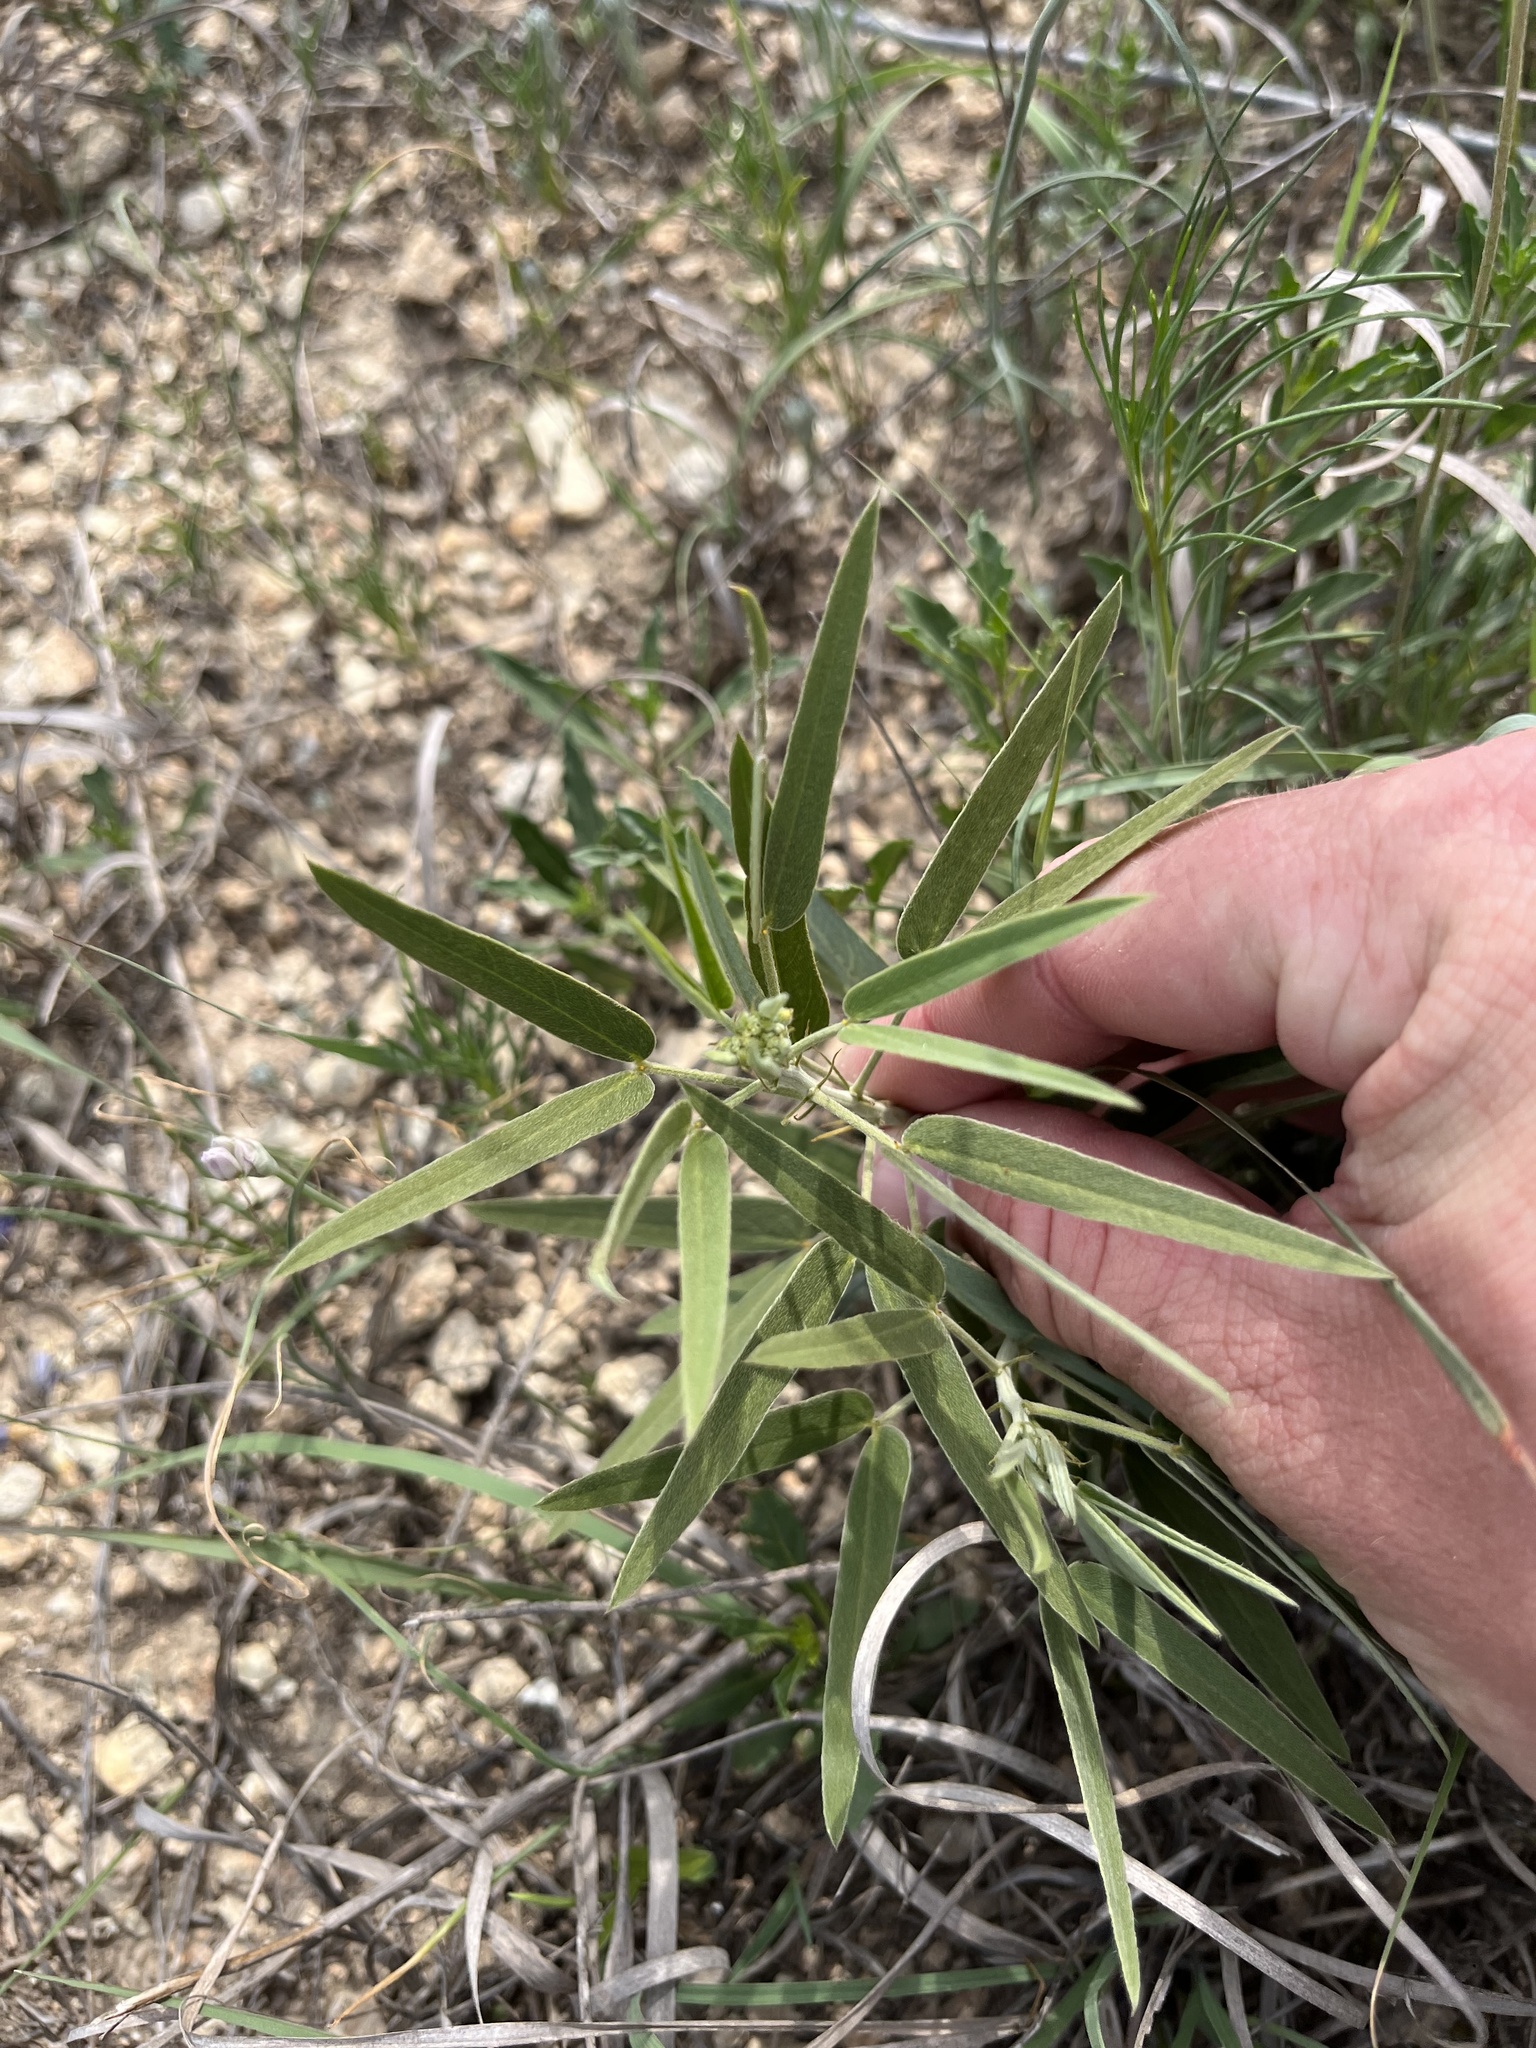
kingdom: Plantae
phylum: Tracheophyta
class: Magnoliopsida
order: Fabales
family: Fabaceae
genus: Senna
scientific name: Senna roemeriana
